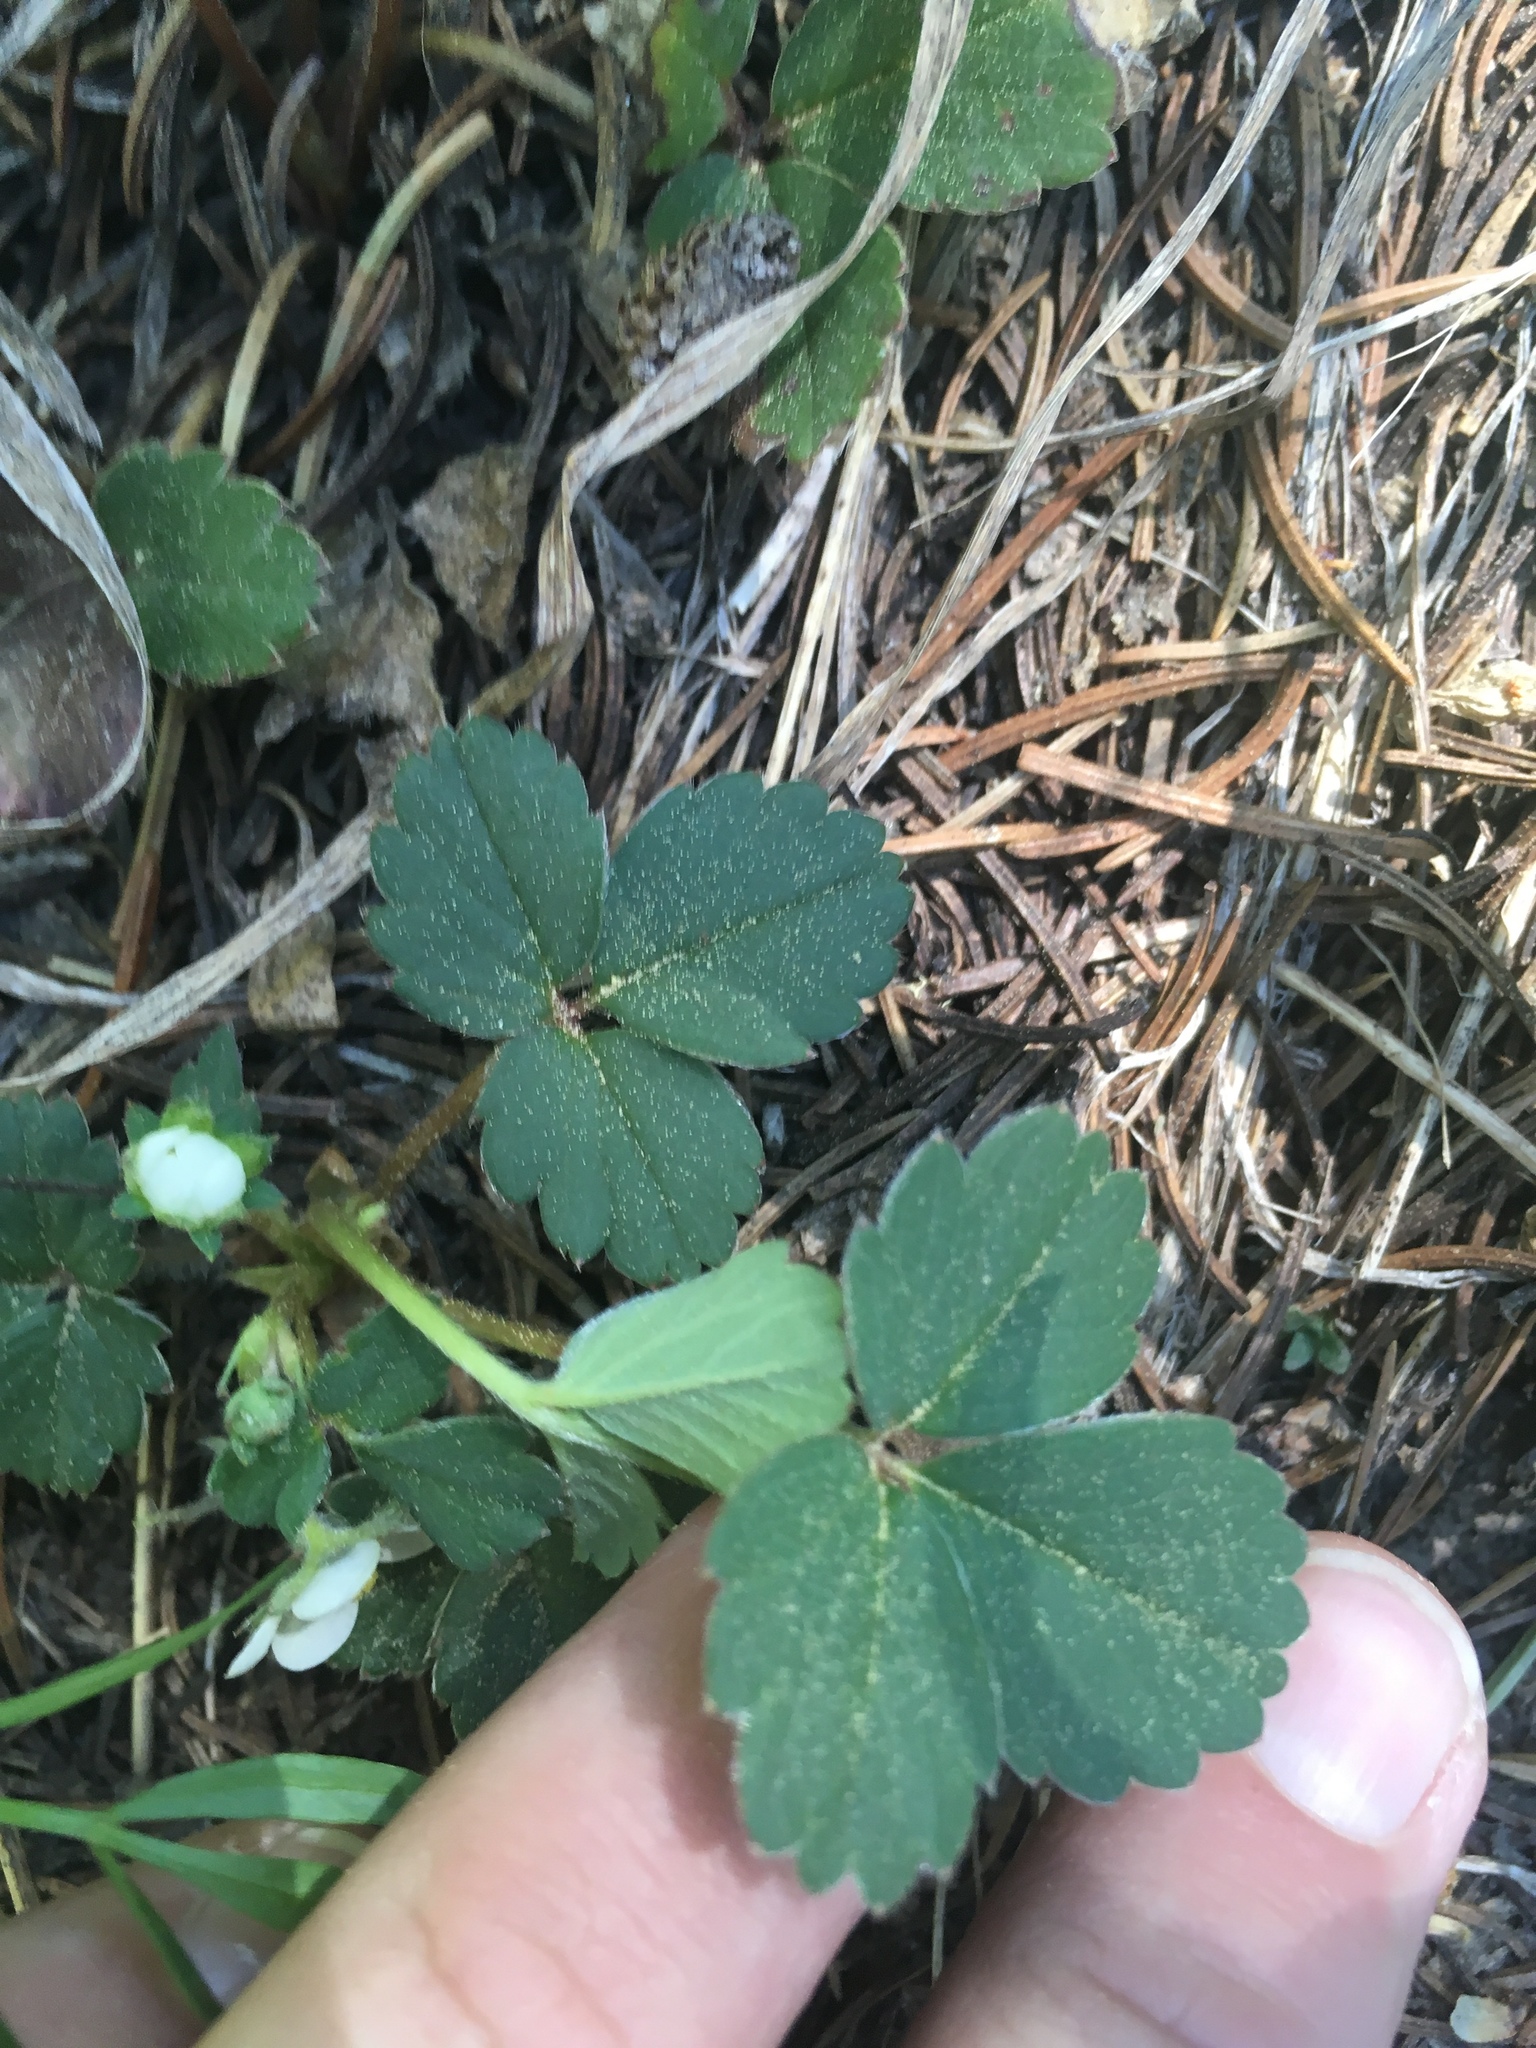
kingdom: Plantae
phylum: Tracheophyta
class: Magnoliopsida
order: Rosales
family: Rosaceae
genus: Fragaria
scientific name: Fragaria virginiana
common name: Thickleaved wild strawberry
